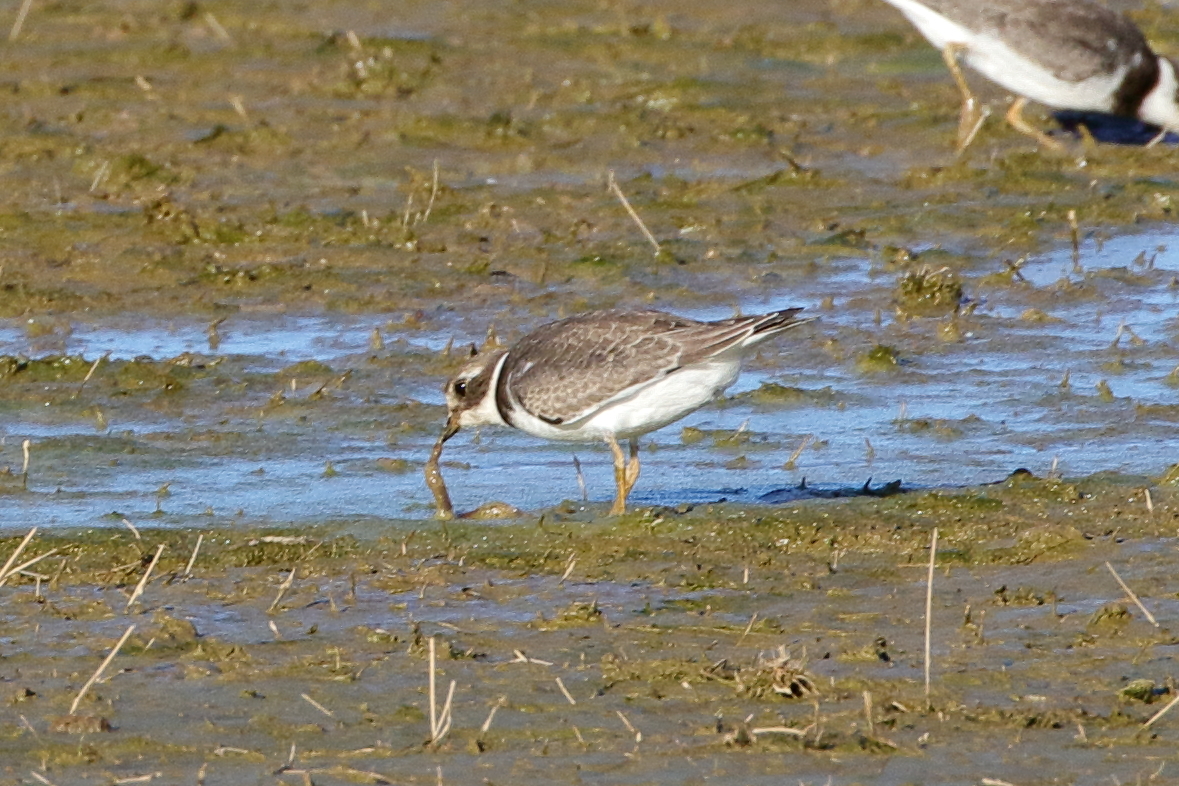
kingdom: Animalia
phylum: Chordata
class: Aves
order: Charadriiformes
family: Charadriidae
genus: Charadrius
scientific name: Charadrius semipalmatus
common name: Semipalmated plover
